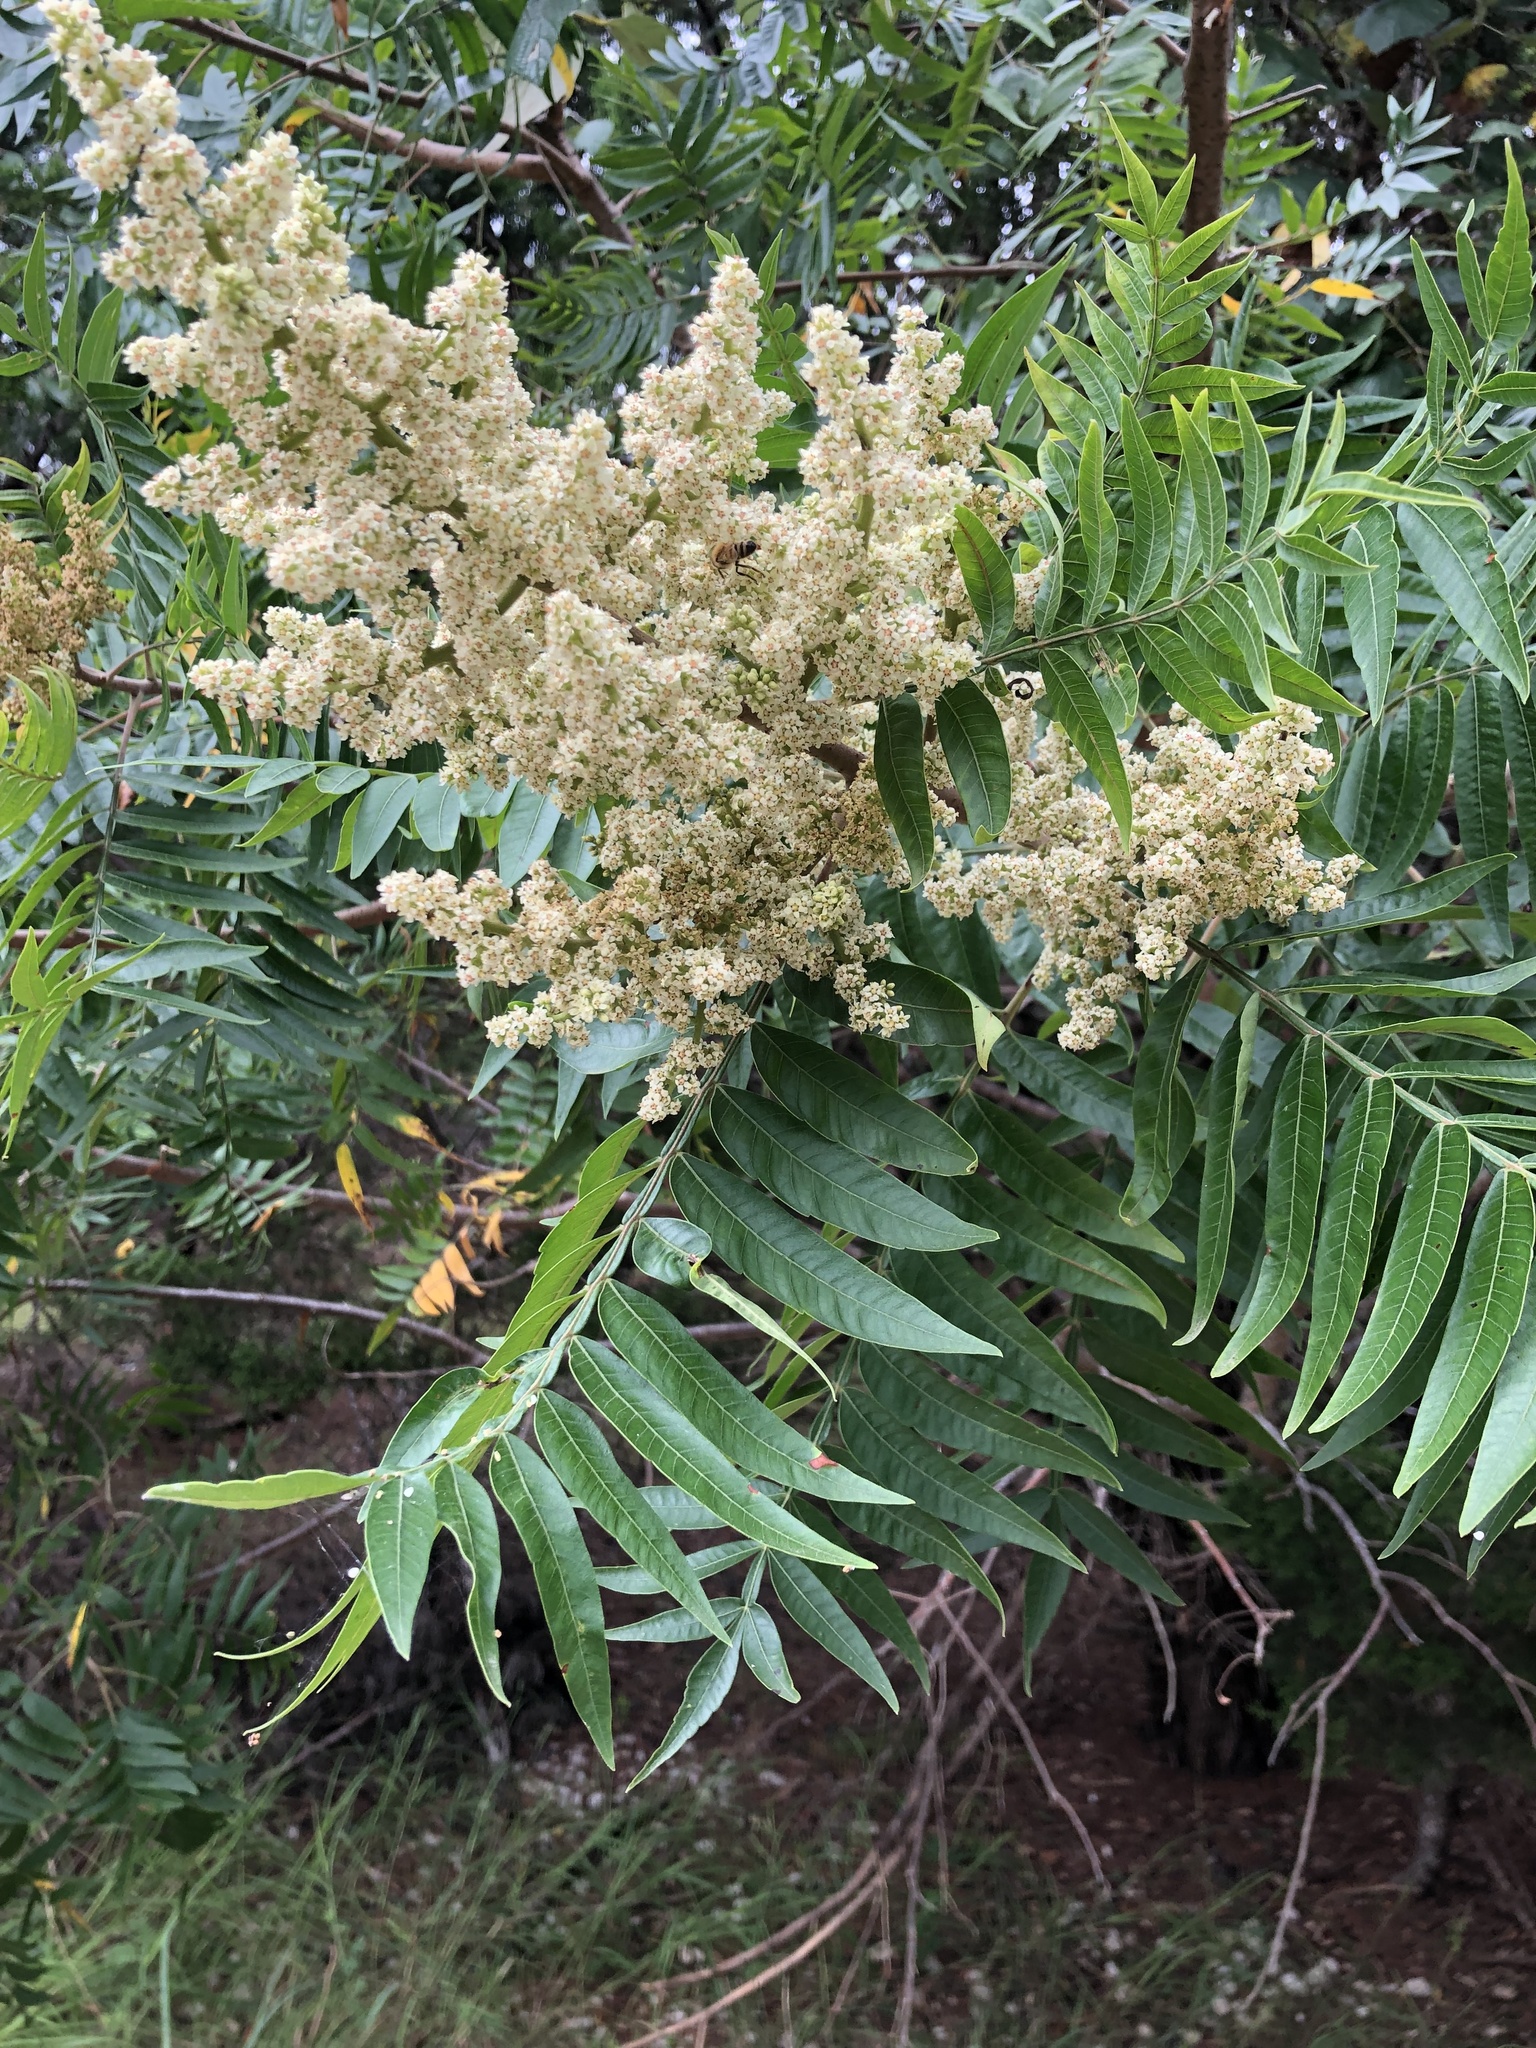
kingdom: Plantae
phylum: Tracheophyta
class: Magnoliopsida
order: Sapindales
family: Anacardiaceae
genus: Rhus
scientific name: Rhus lanceolata
